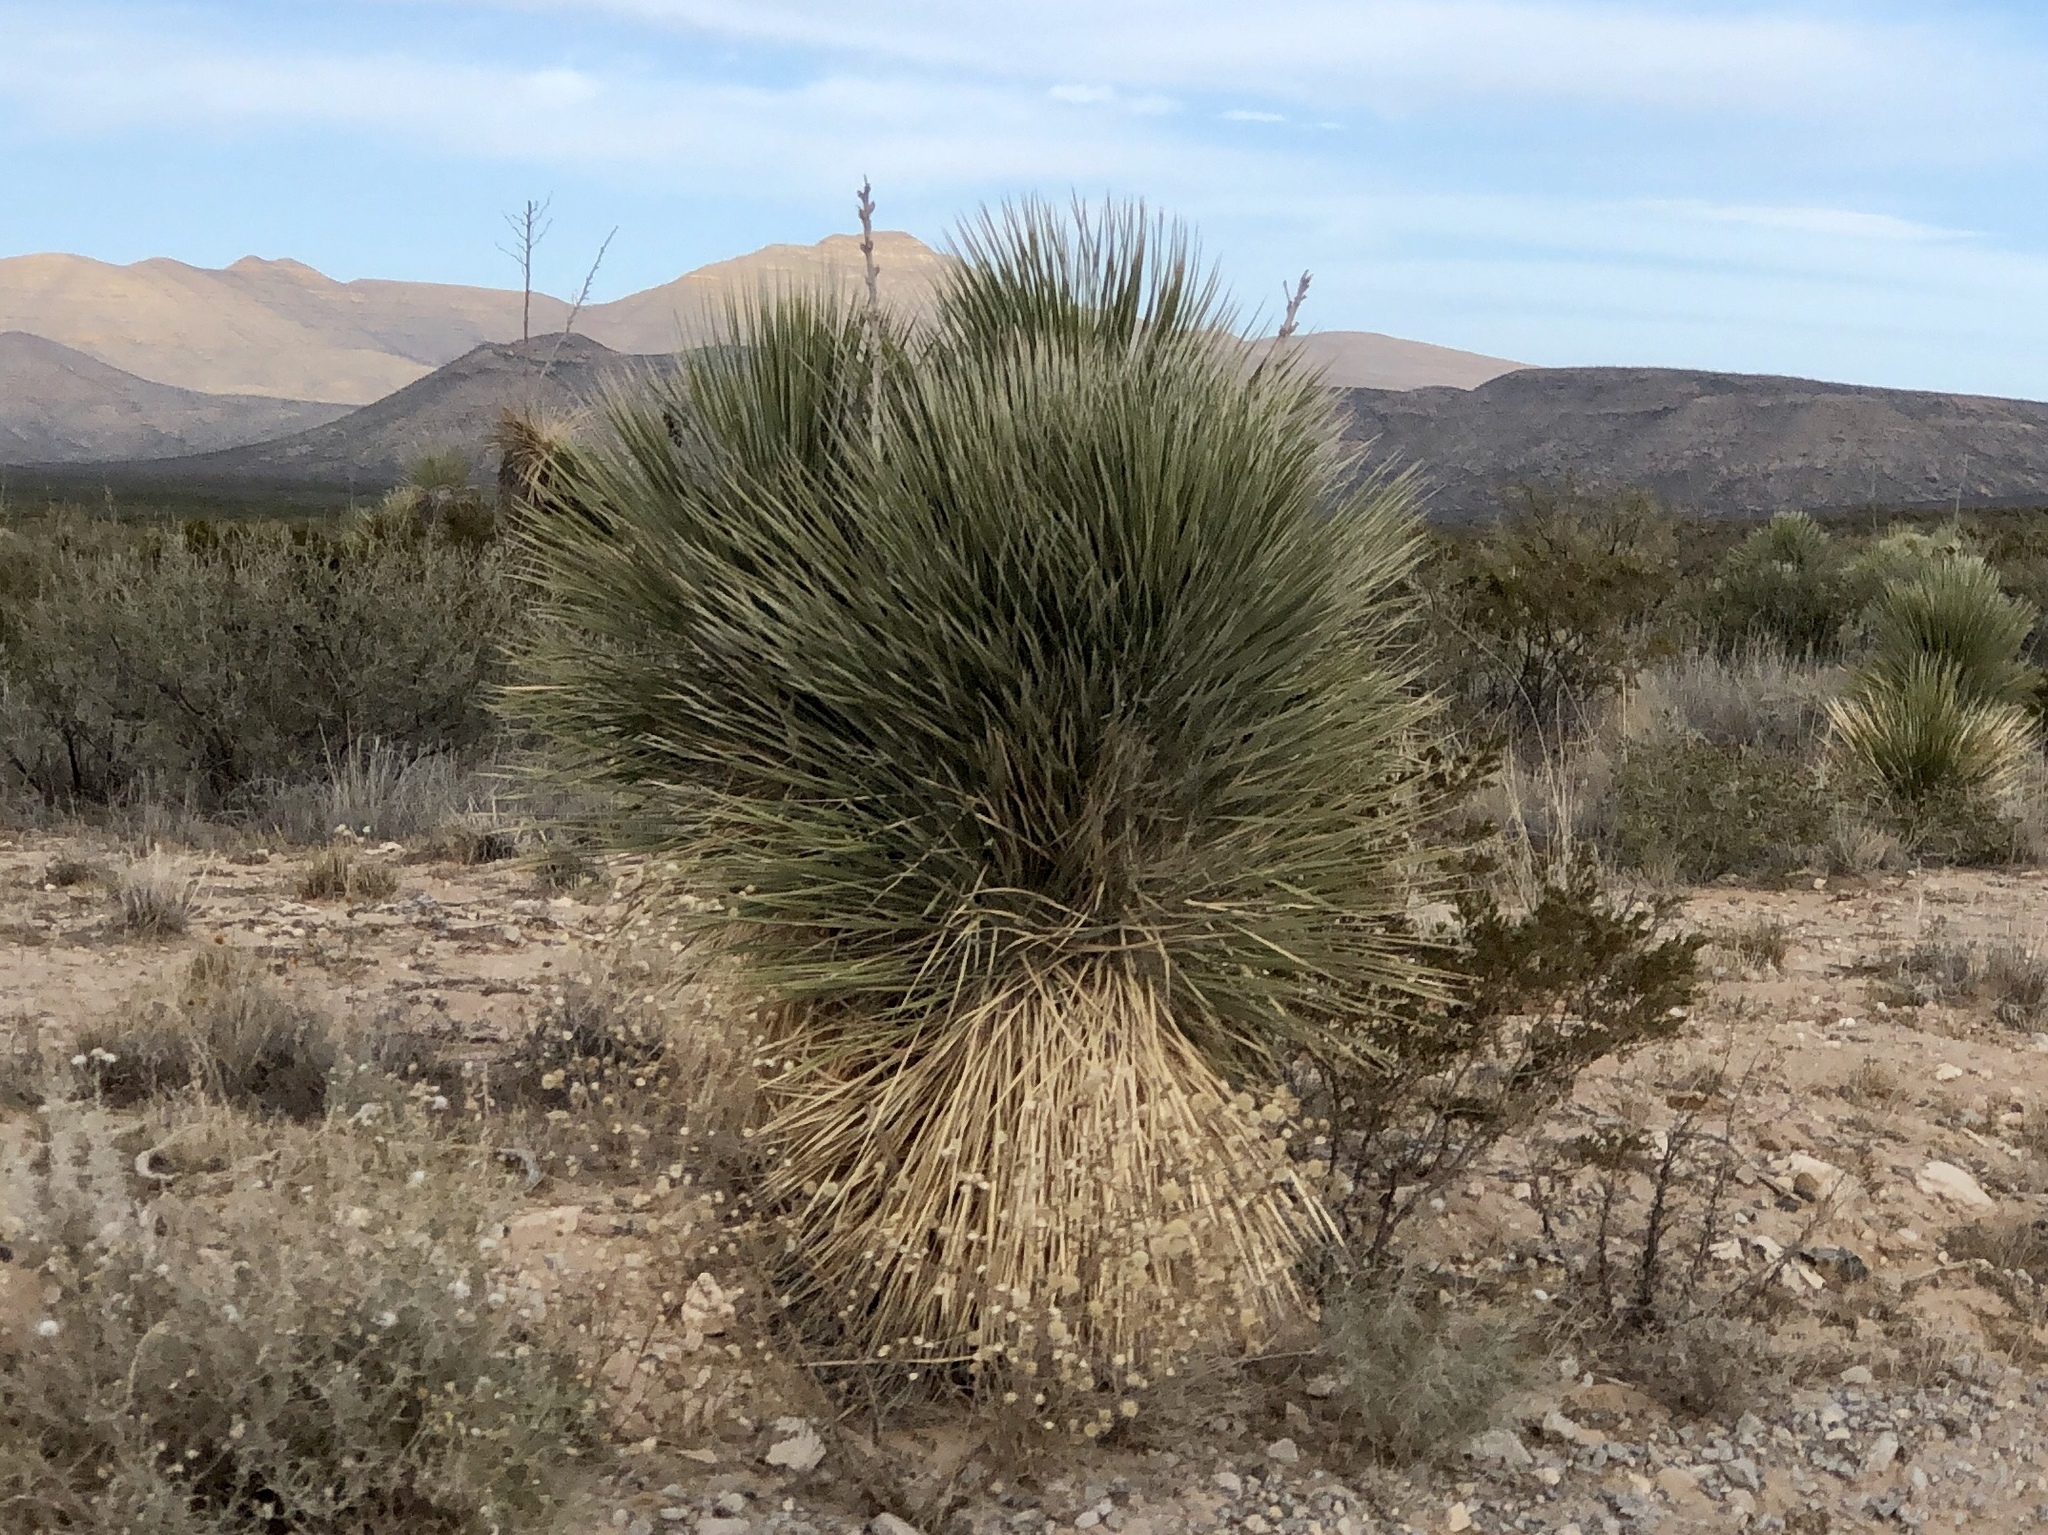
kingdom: Plantae
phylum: Tracheophyta
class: Liliopsida
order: Asparagales
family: Asparagaceae
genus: Yucca
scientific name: Yucca elata
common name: Palmella
